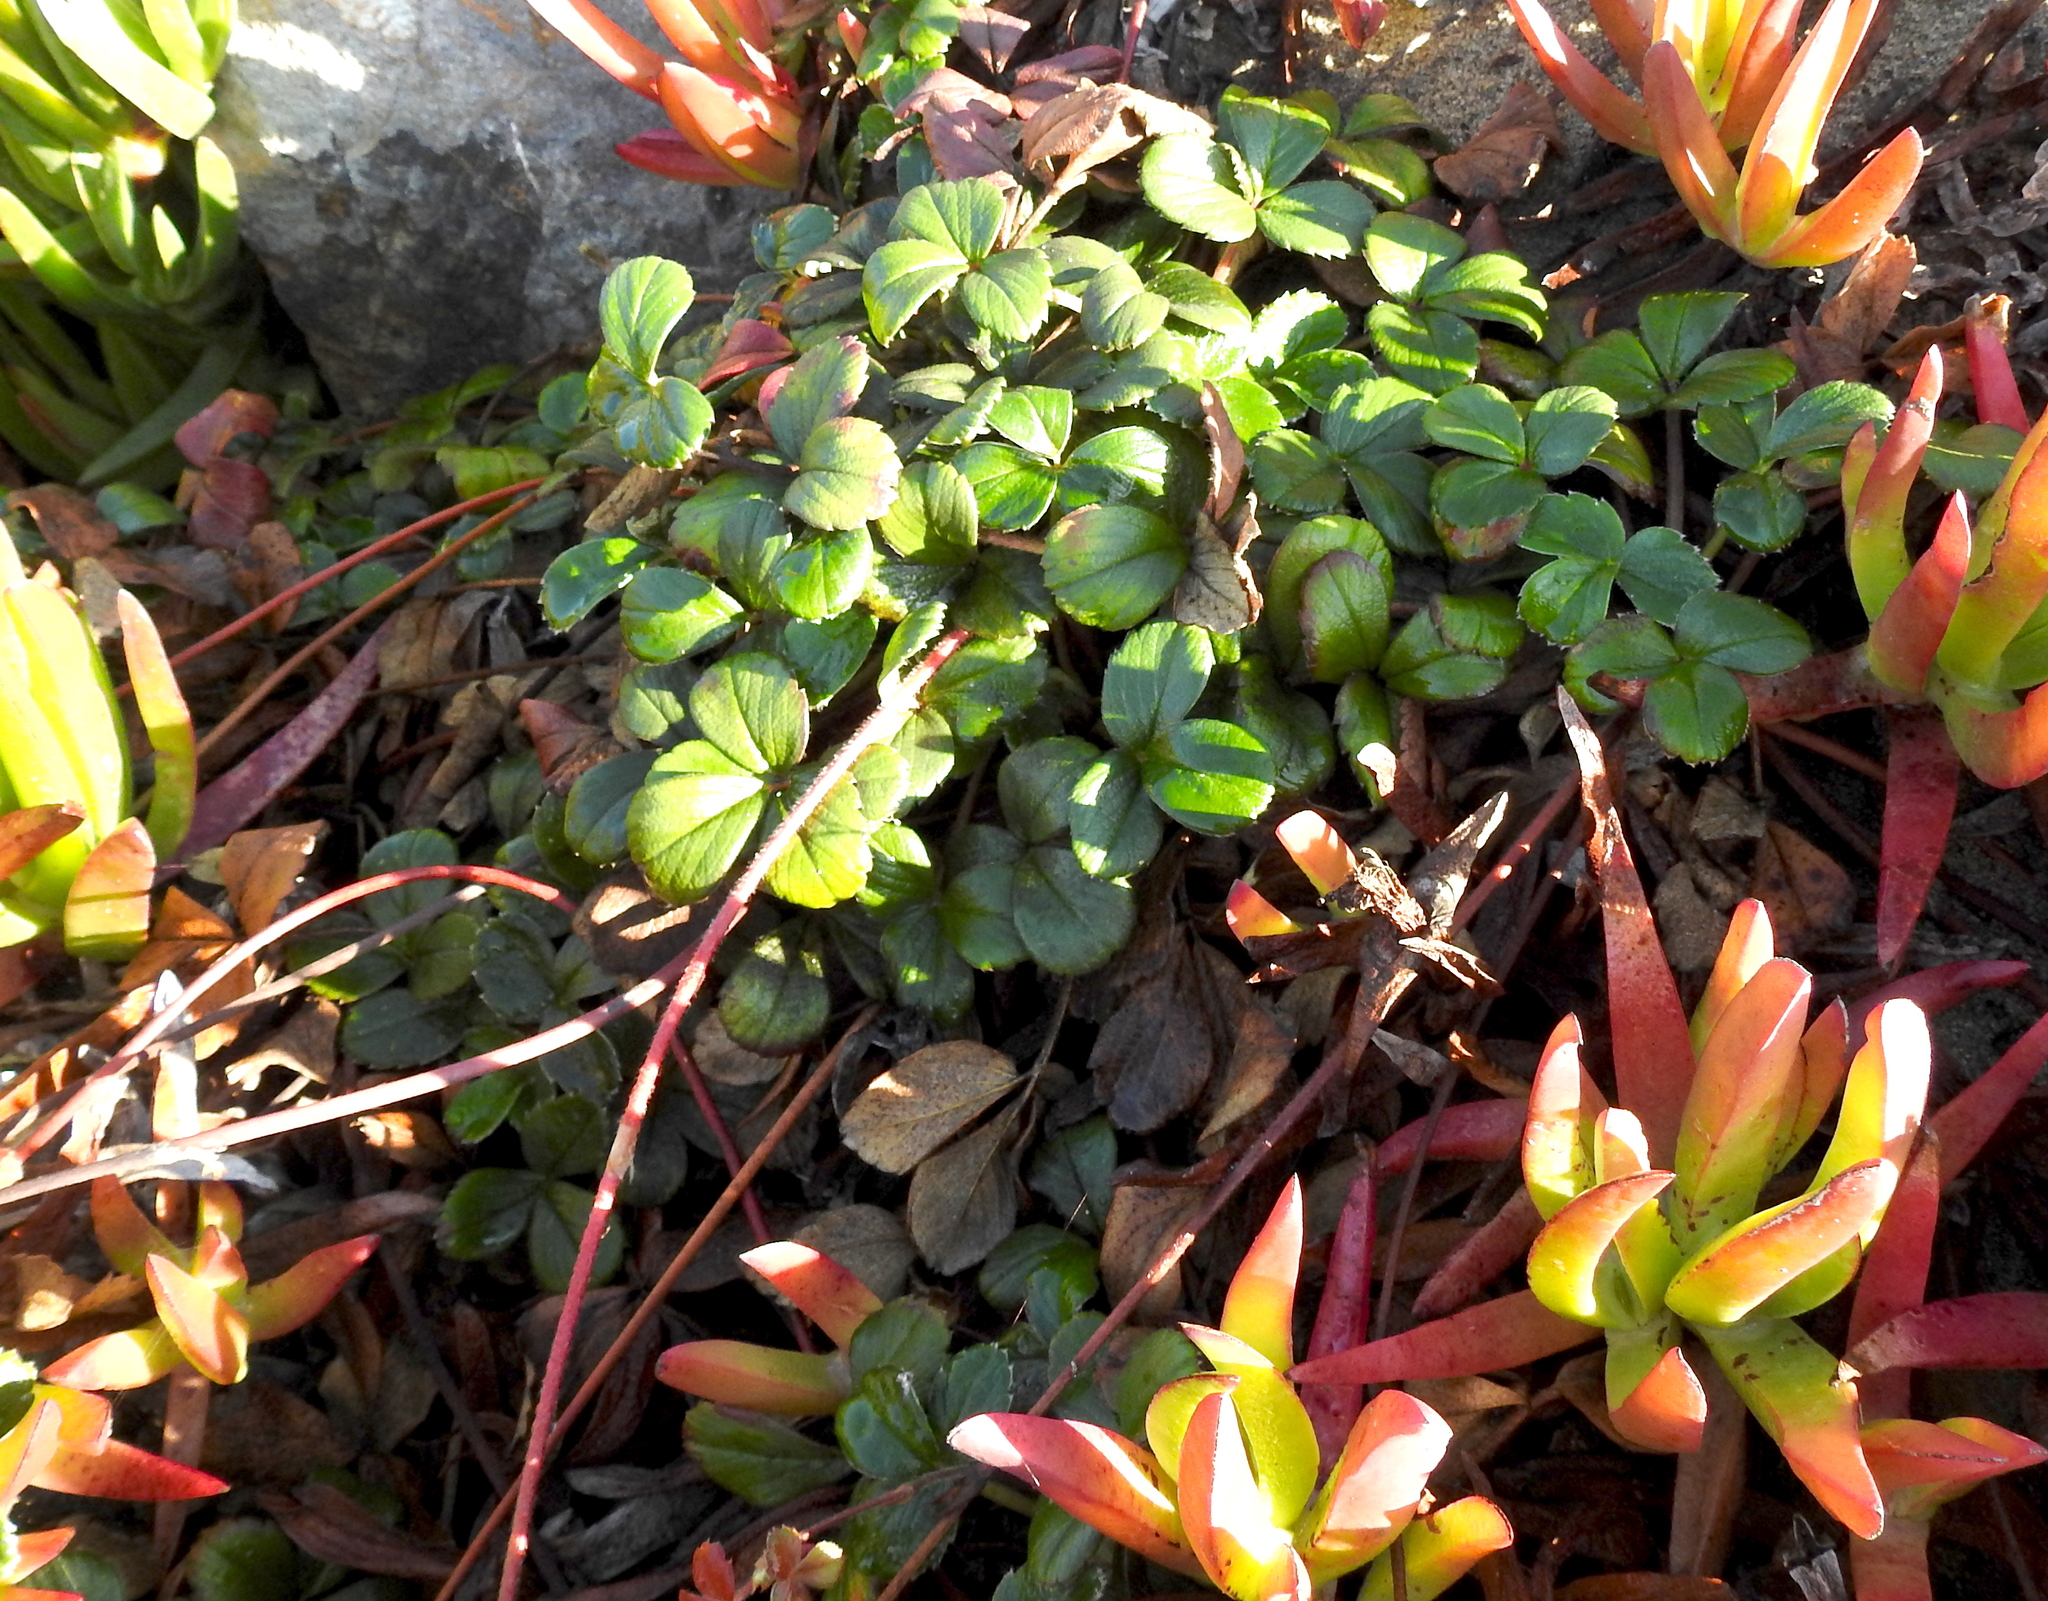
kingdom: Plantae
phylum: Tracheophyta
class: Magnoliopsida
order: Rosales
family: Rosaceae
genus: Fragaria
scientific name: Fragaria chiloensis
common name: Beach strawberry
